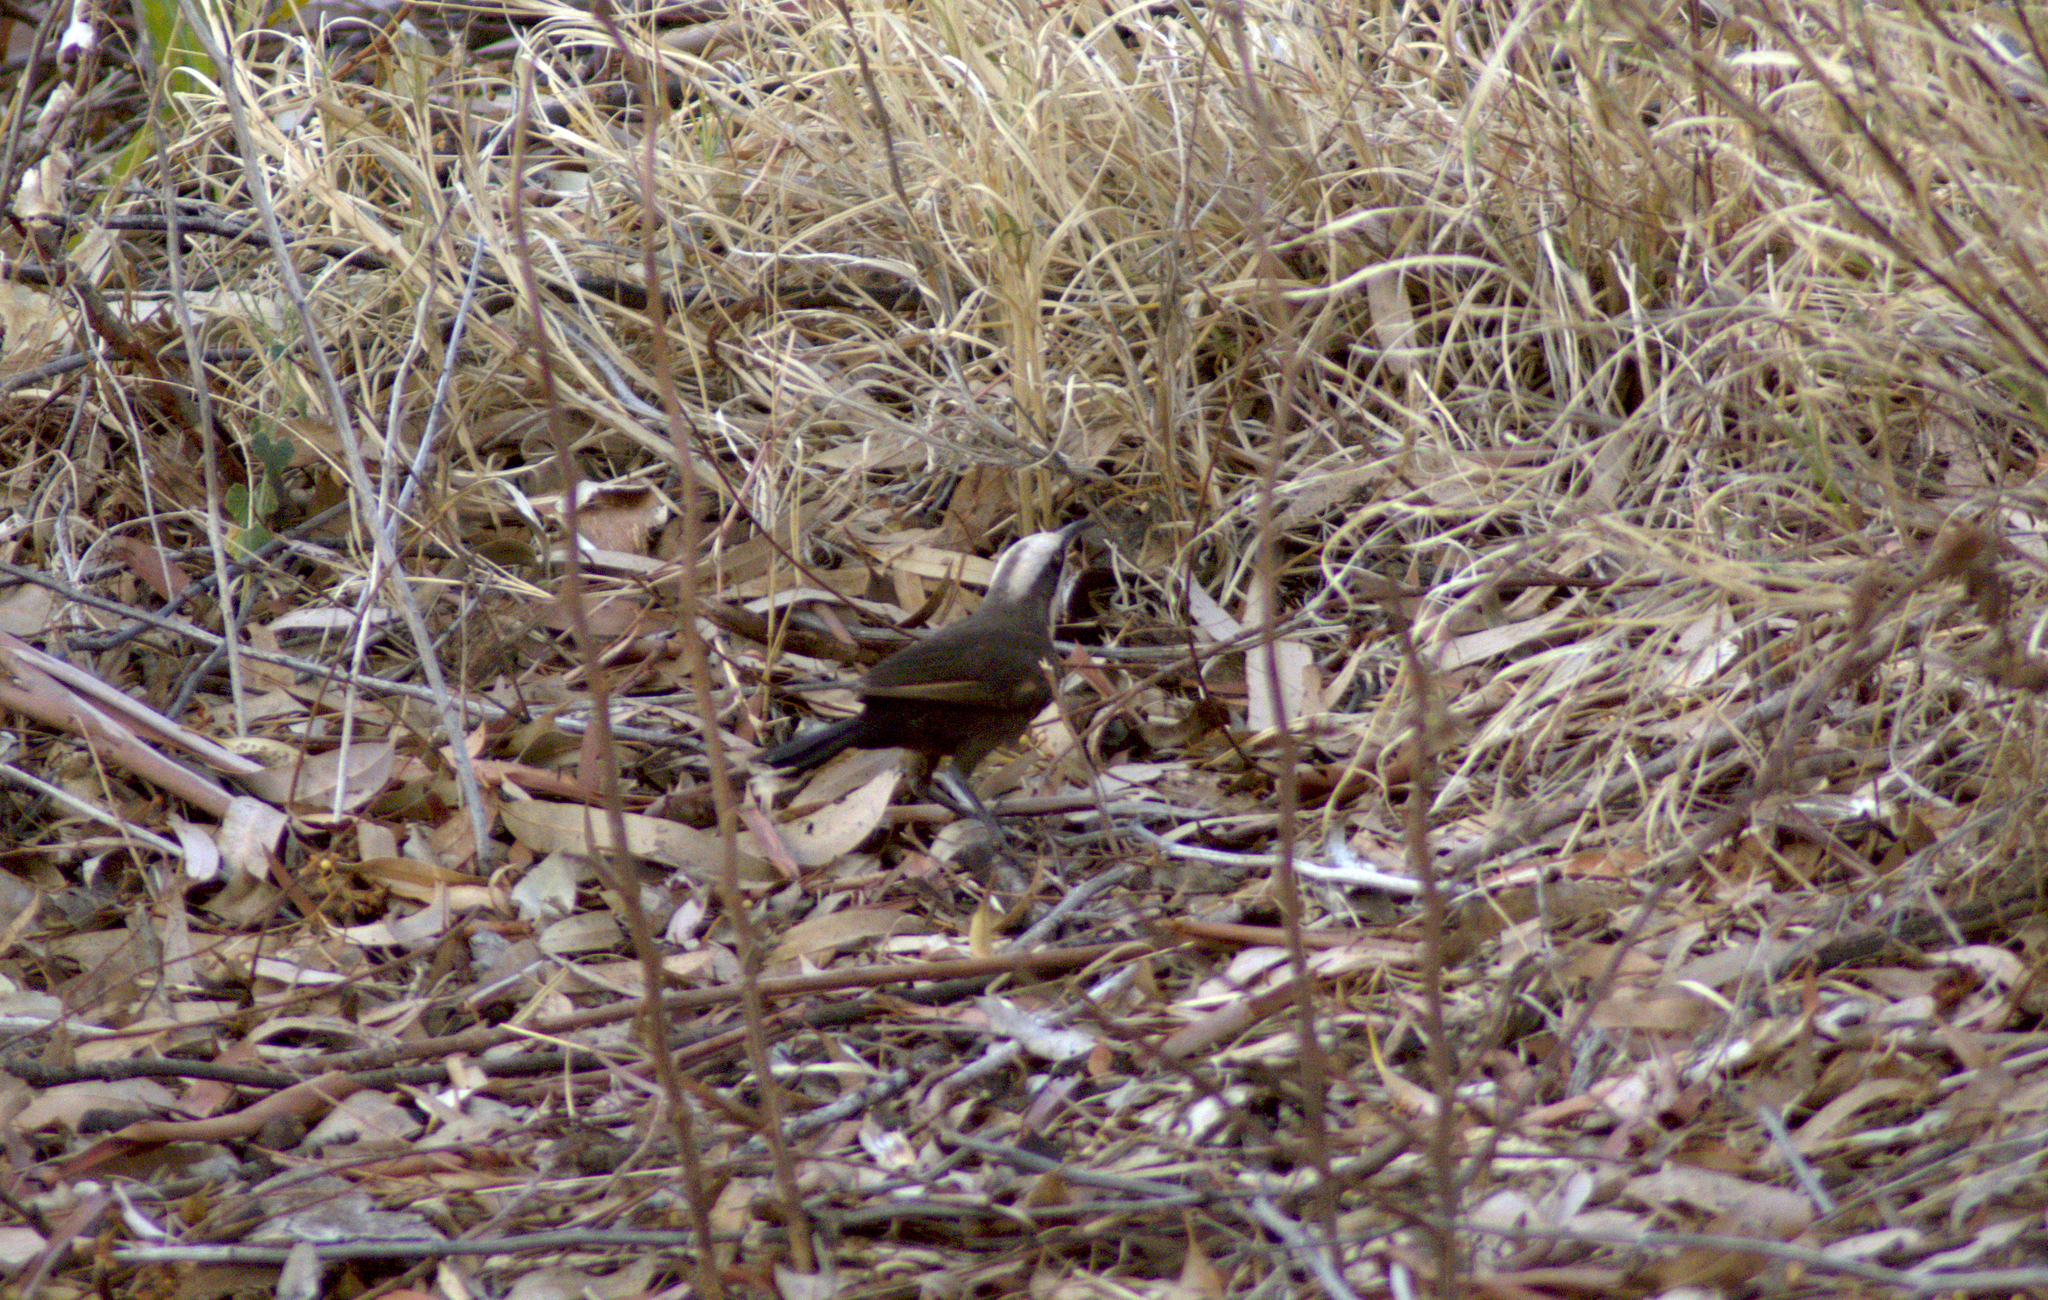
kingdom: Animalia
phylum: Chordata
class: Aves
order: Passeriformes
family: Pomatostomidae
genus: Pomatostomus
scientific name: Pomatostomus temporalis
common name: Grey-crowned babbler
